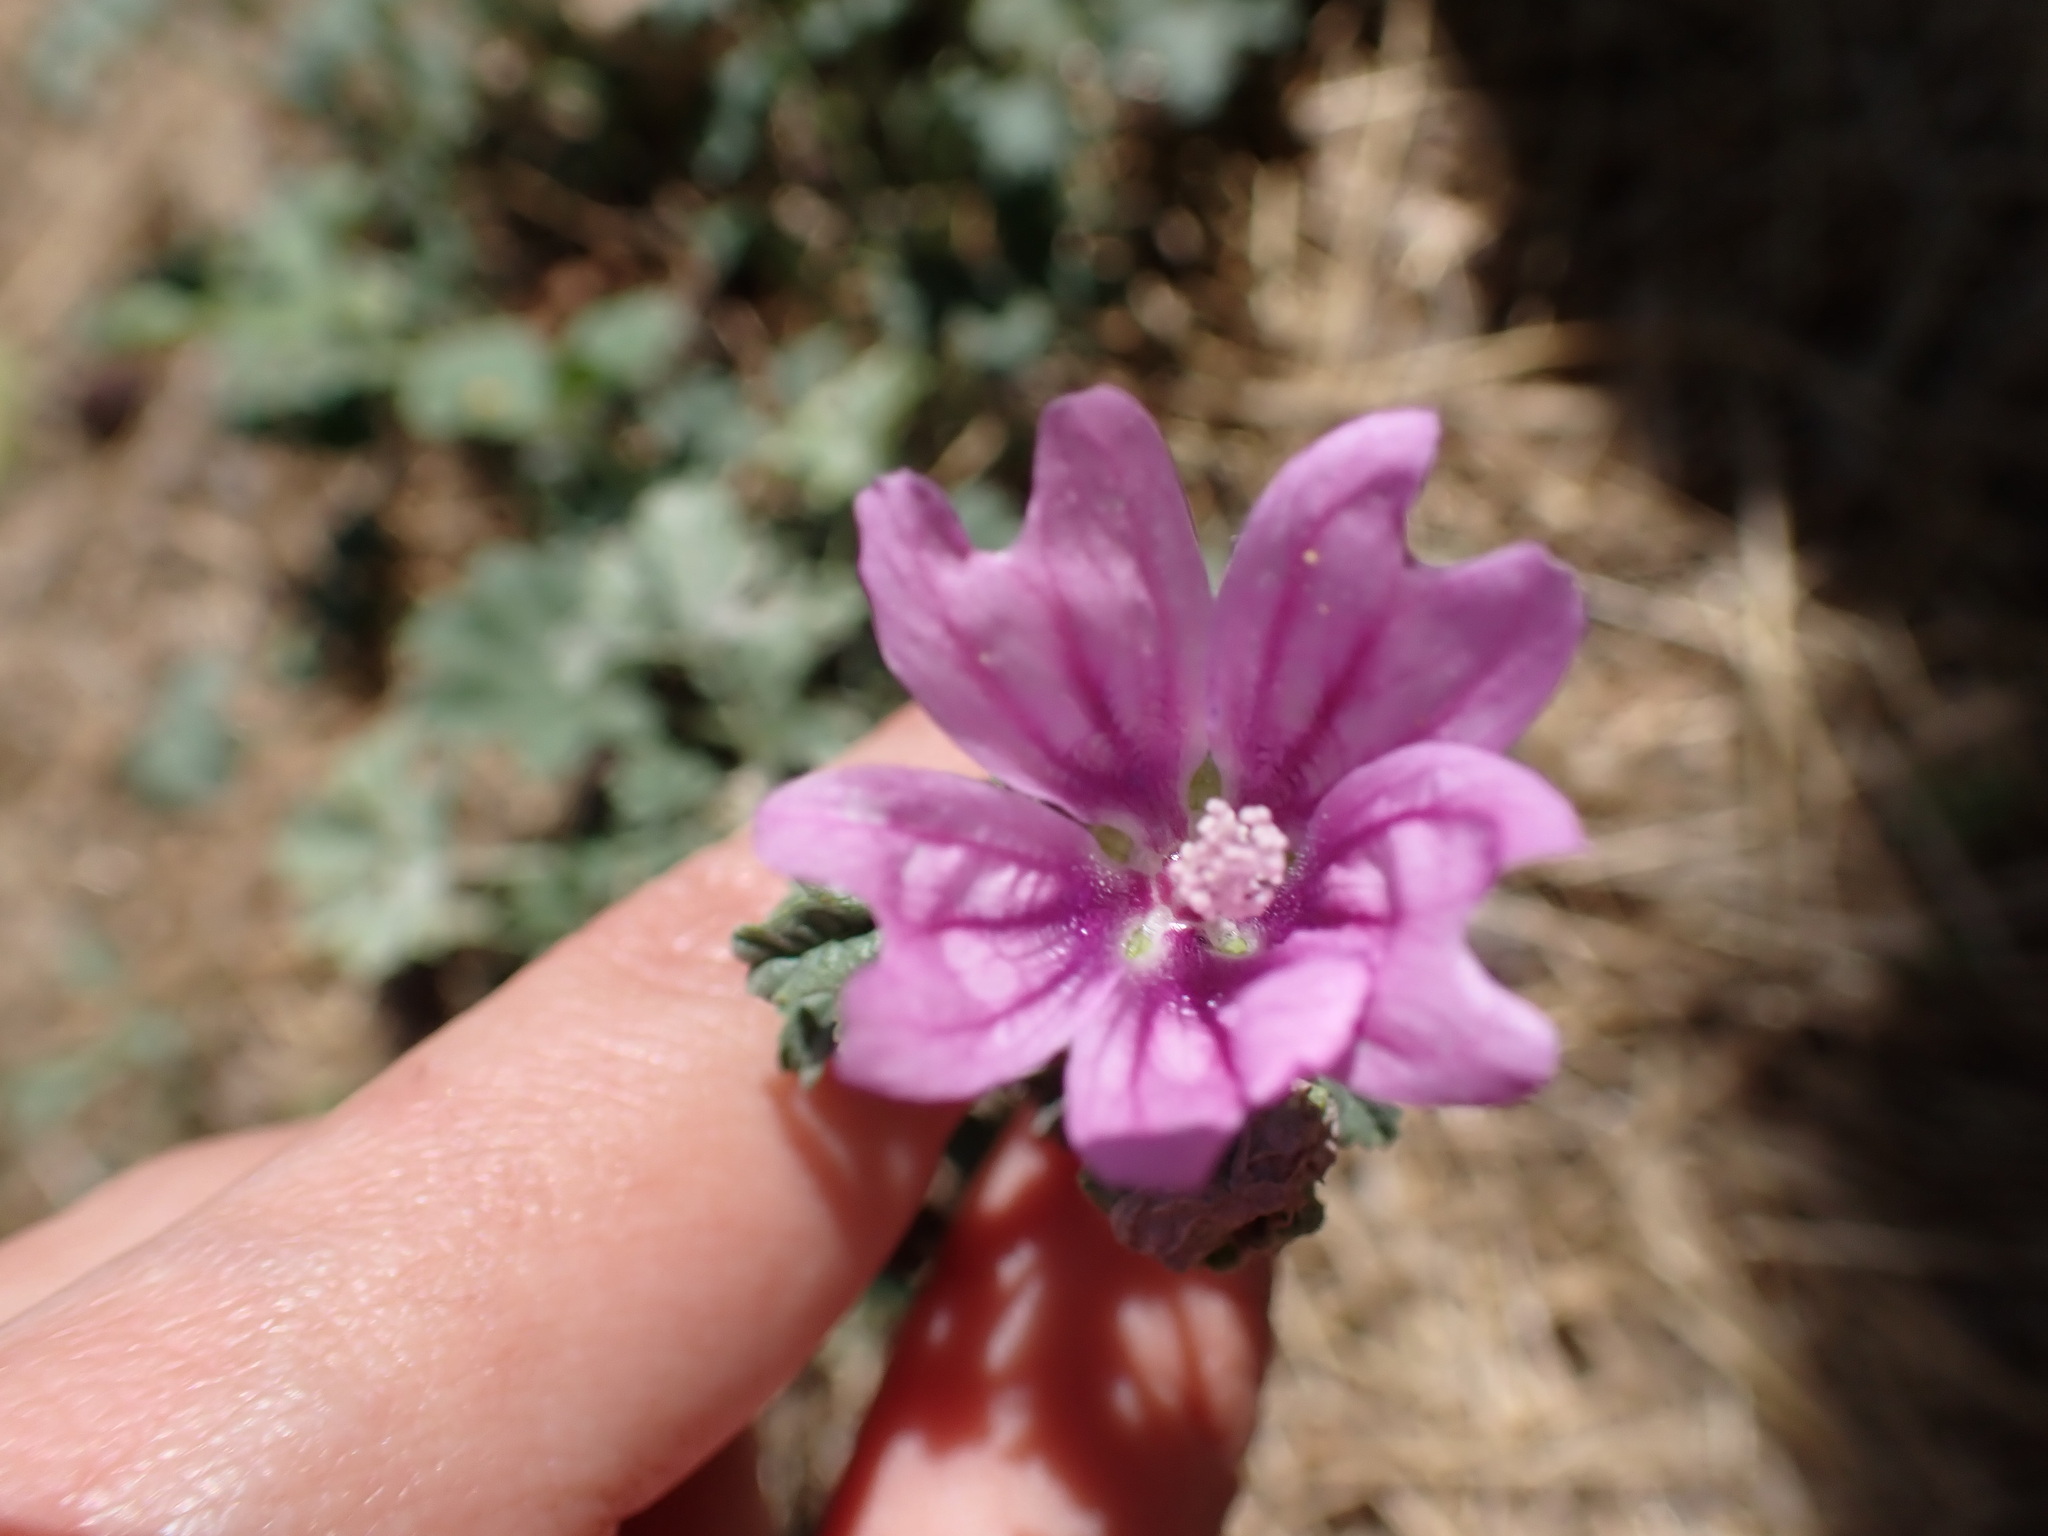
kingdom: Plantae
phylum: Tracheophyta
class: Magnoliopsida
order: Malvales
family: Malvaceae
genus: Malva
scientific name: Malva sylvestris
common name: Common mallow
